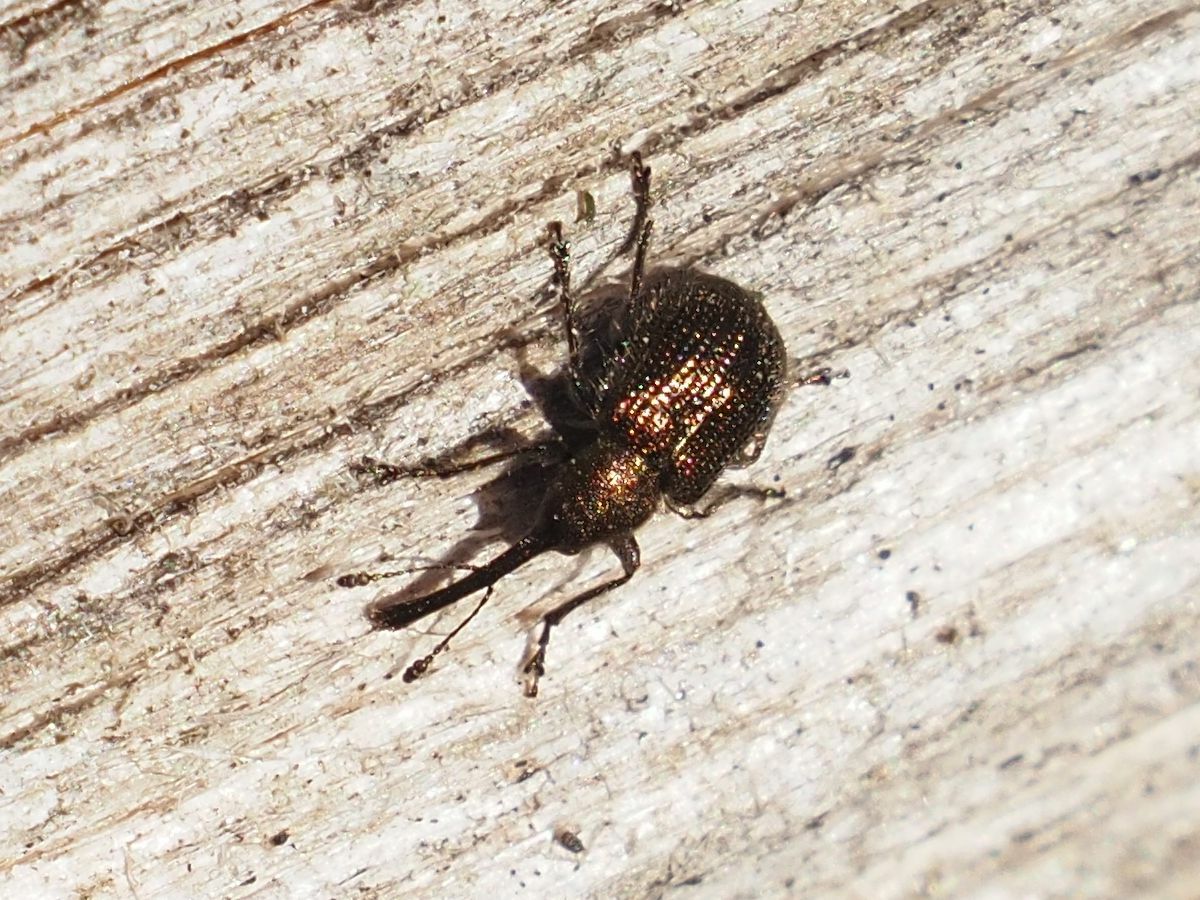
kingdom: Animalia
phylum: Arthropoda
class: Insecta
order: Coleoptera
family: Attelabidae
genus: Neocoenorrhinus
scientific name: Neocoenorrhinus minutus
